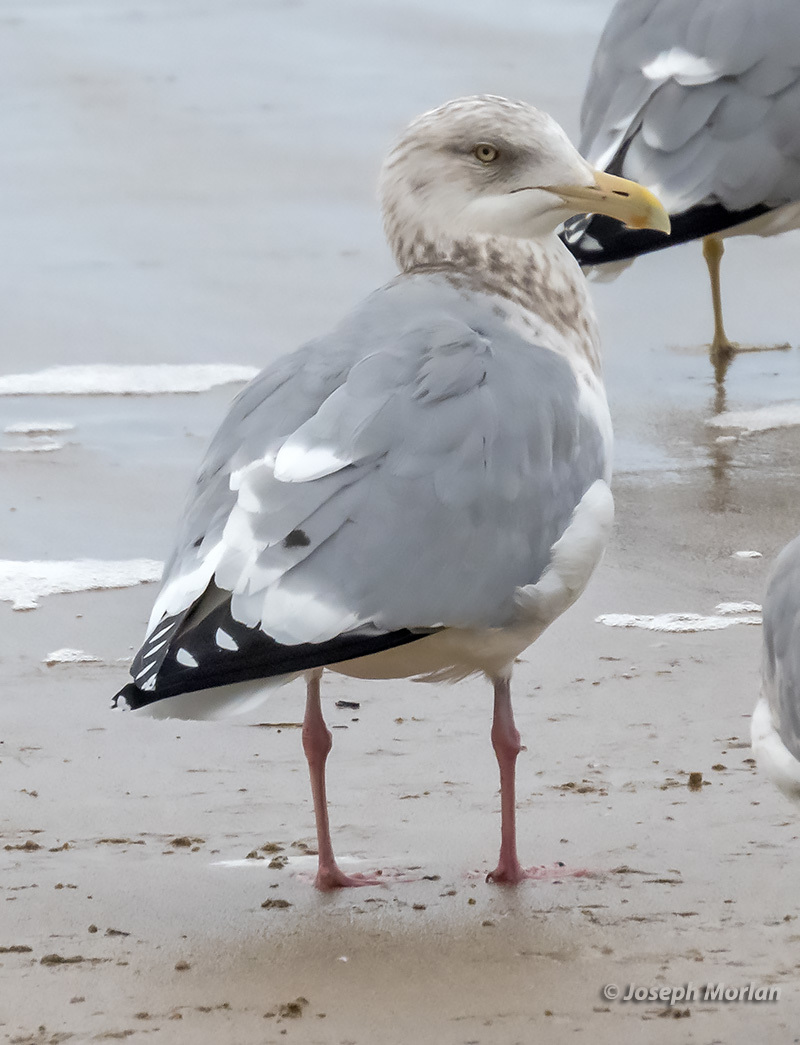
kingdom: Animalia
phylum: Chordata
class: Aves
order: Charadriiformes
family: Laridae
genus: Larus
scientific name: Larus argentatus
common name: Herring gull
